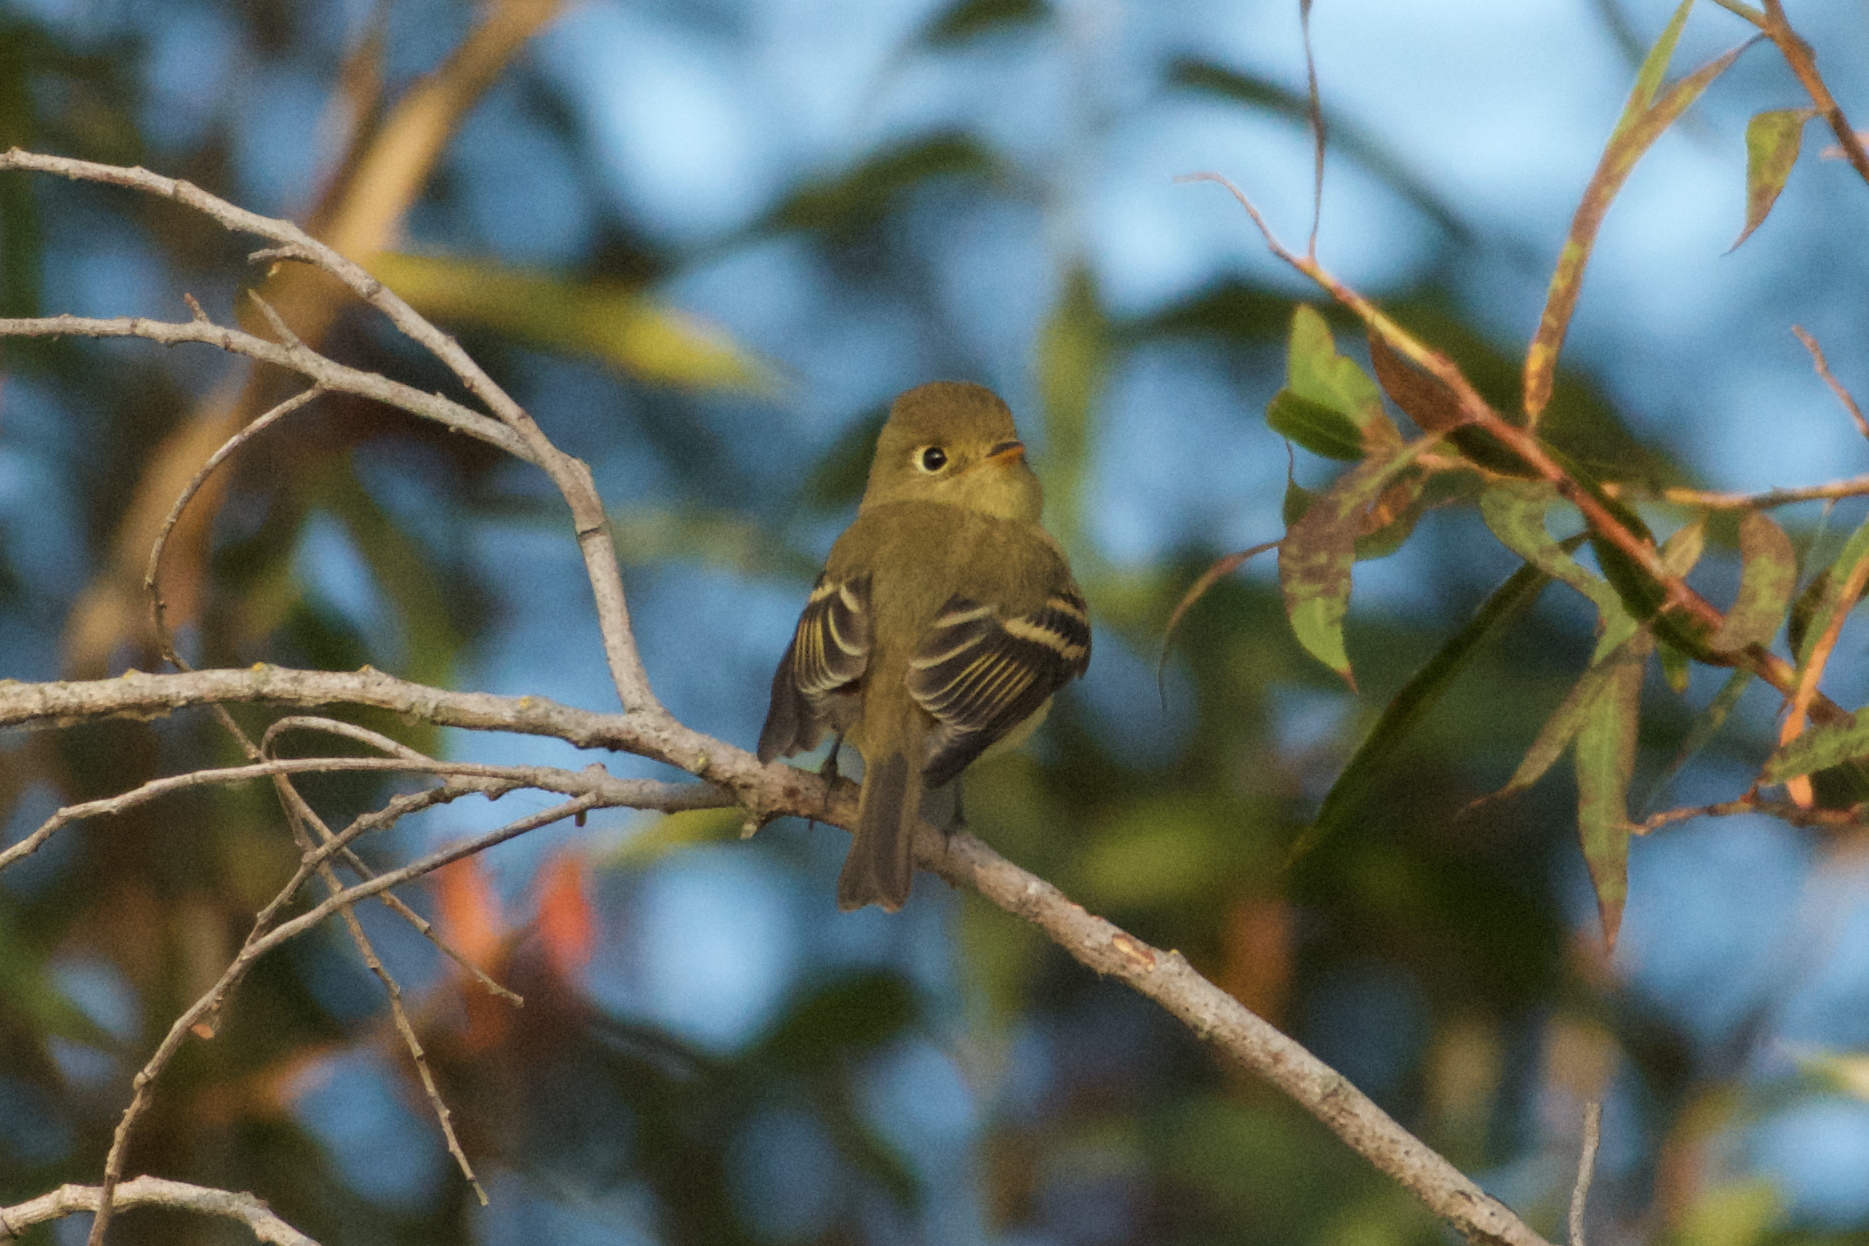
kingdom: Animalia
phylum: Chordata
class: Aves
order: Passeriformes
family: Tyrannidae
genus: Empidonax
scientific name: Empidonax difficilis
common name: Pacific-slope flycatcher
